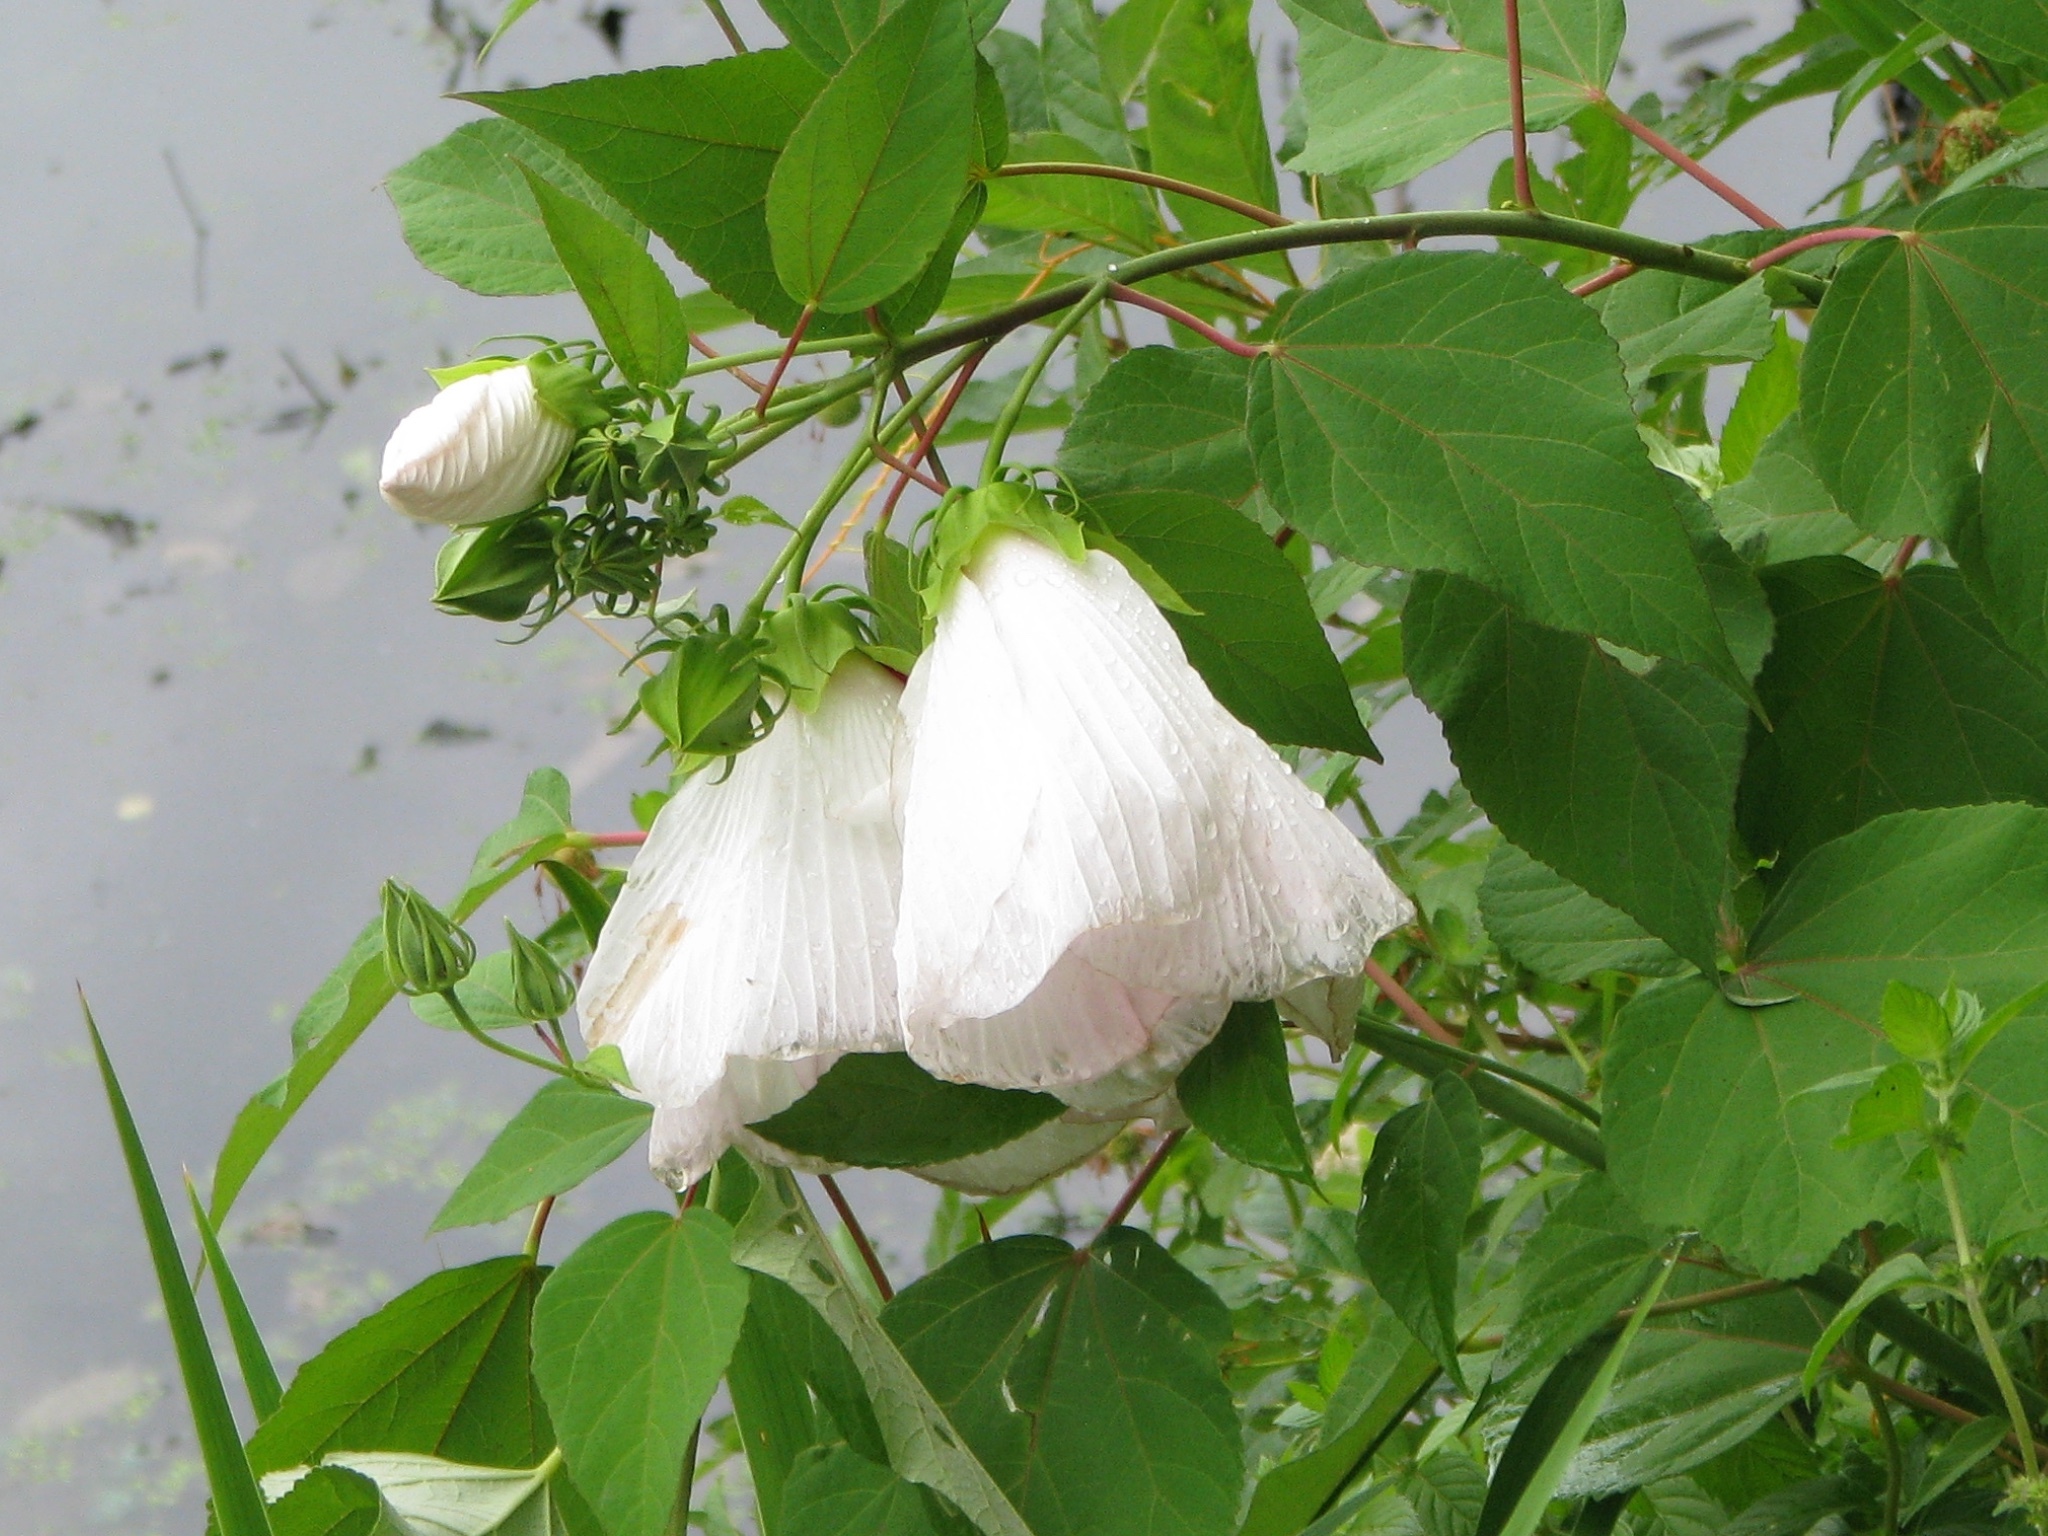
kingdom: Plantae
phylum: Tracheophyta
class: Magnoliopsida
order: Malvales
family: Malvaceae
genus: Hibiscus
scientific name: Hibiscus moscheutos
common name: Common rose-mallow
